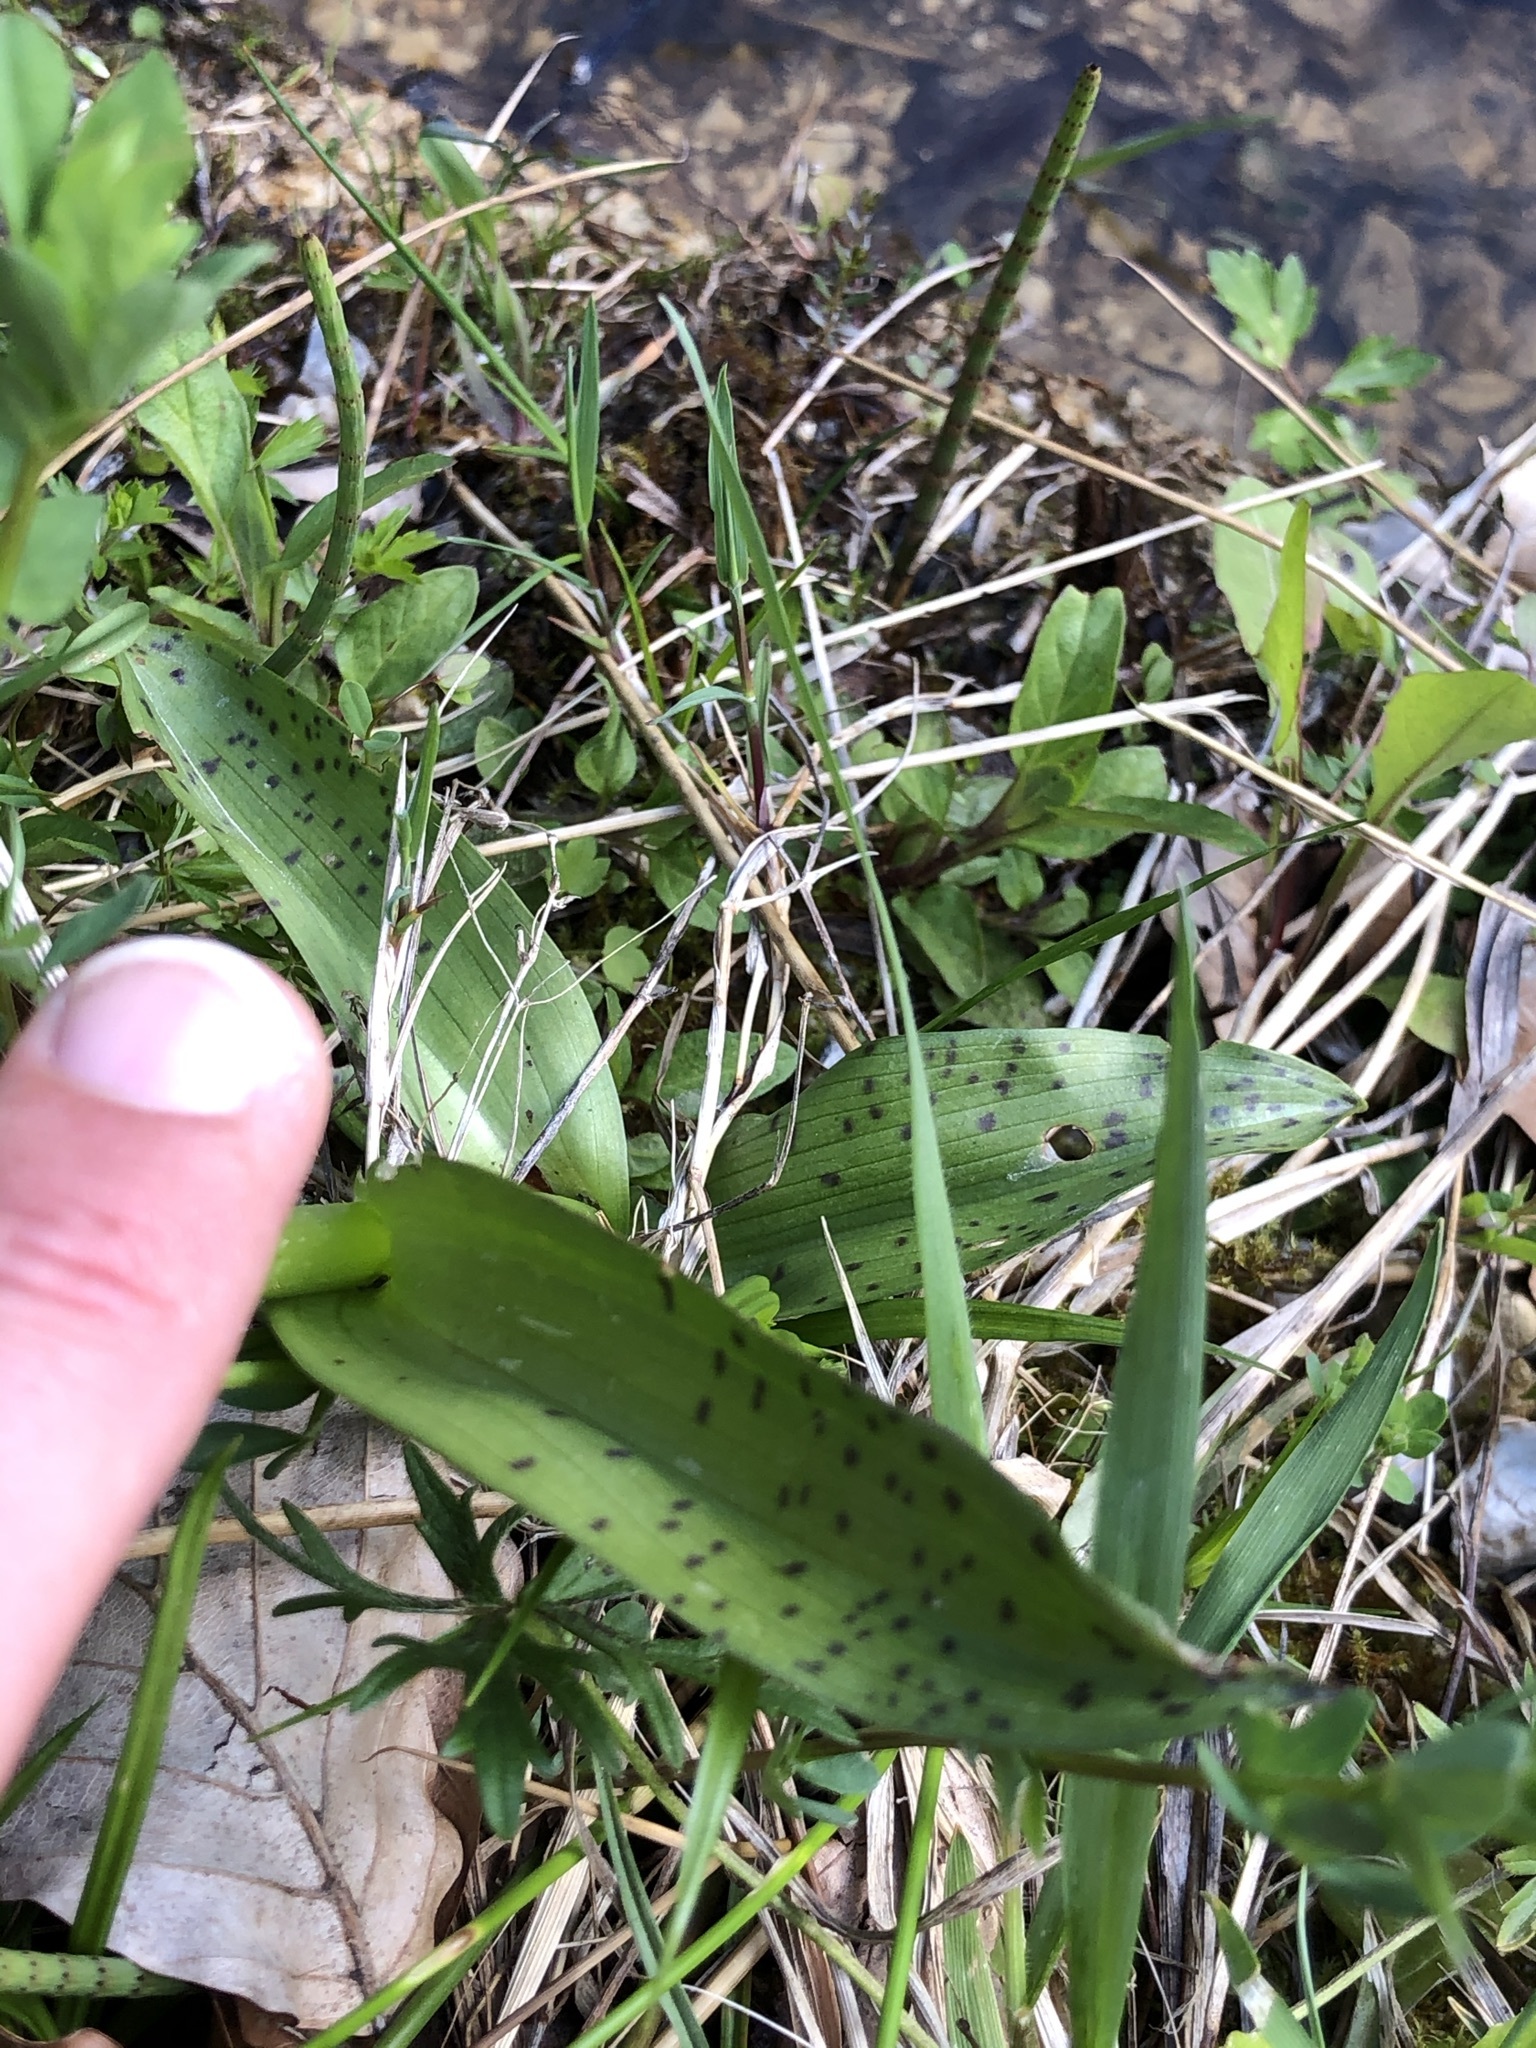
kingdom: Plantae
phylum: Tracheophyta
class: Liliopsida
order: Asparagales
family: Orchidaceae
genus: Dactylorhiza
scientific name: Dactylorhiza majalis
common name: Marsh orchid
